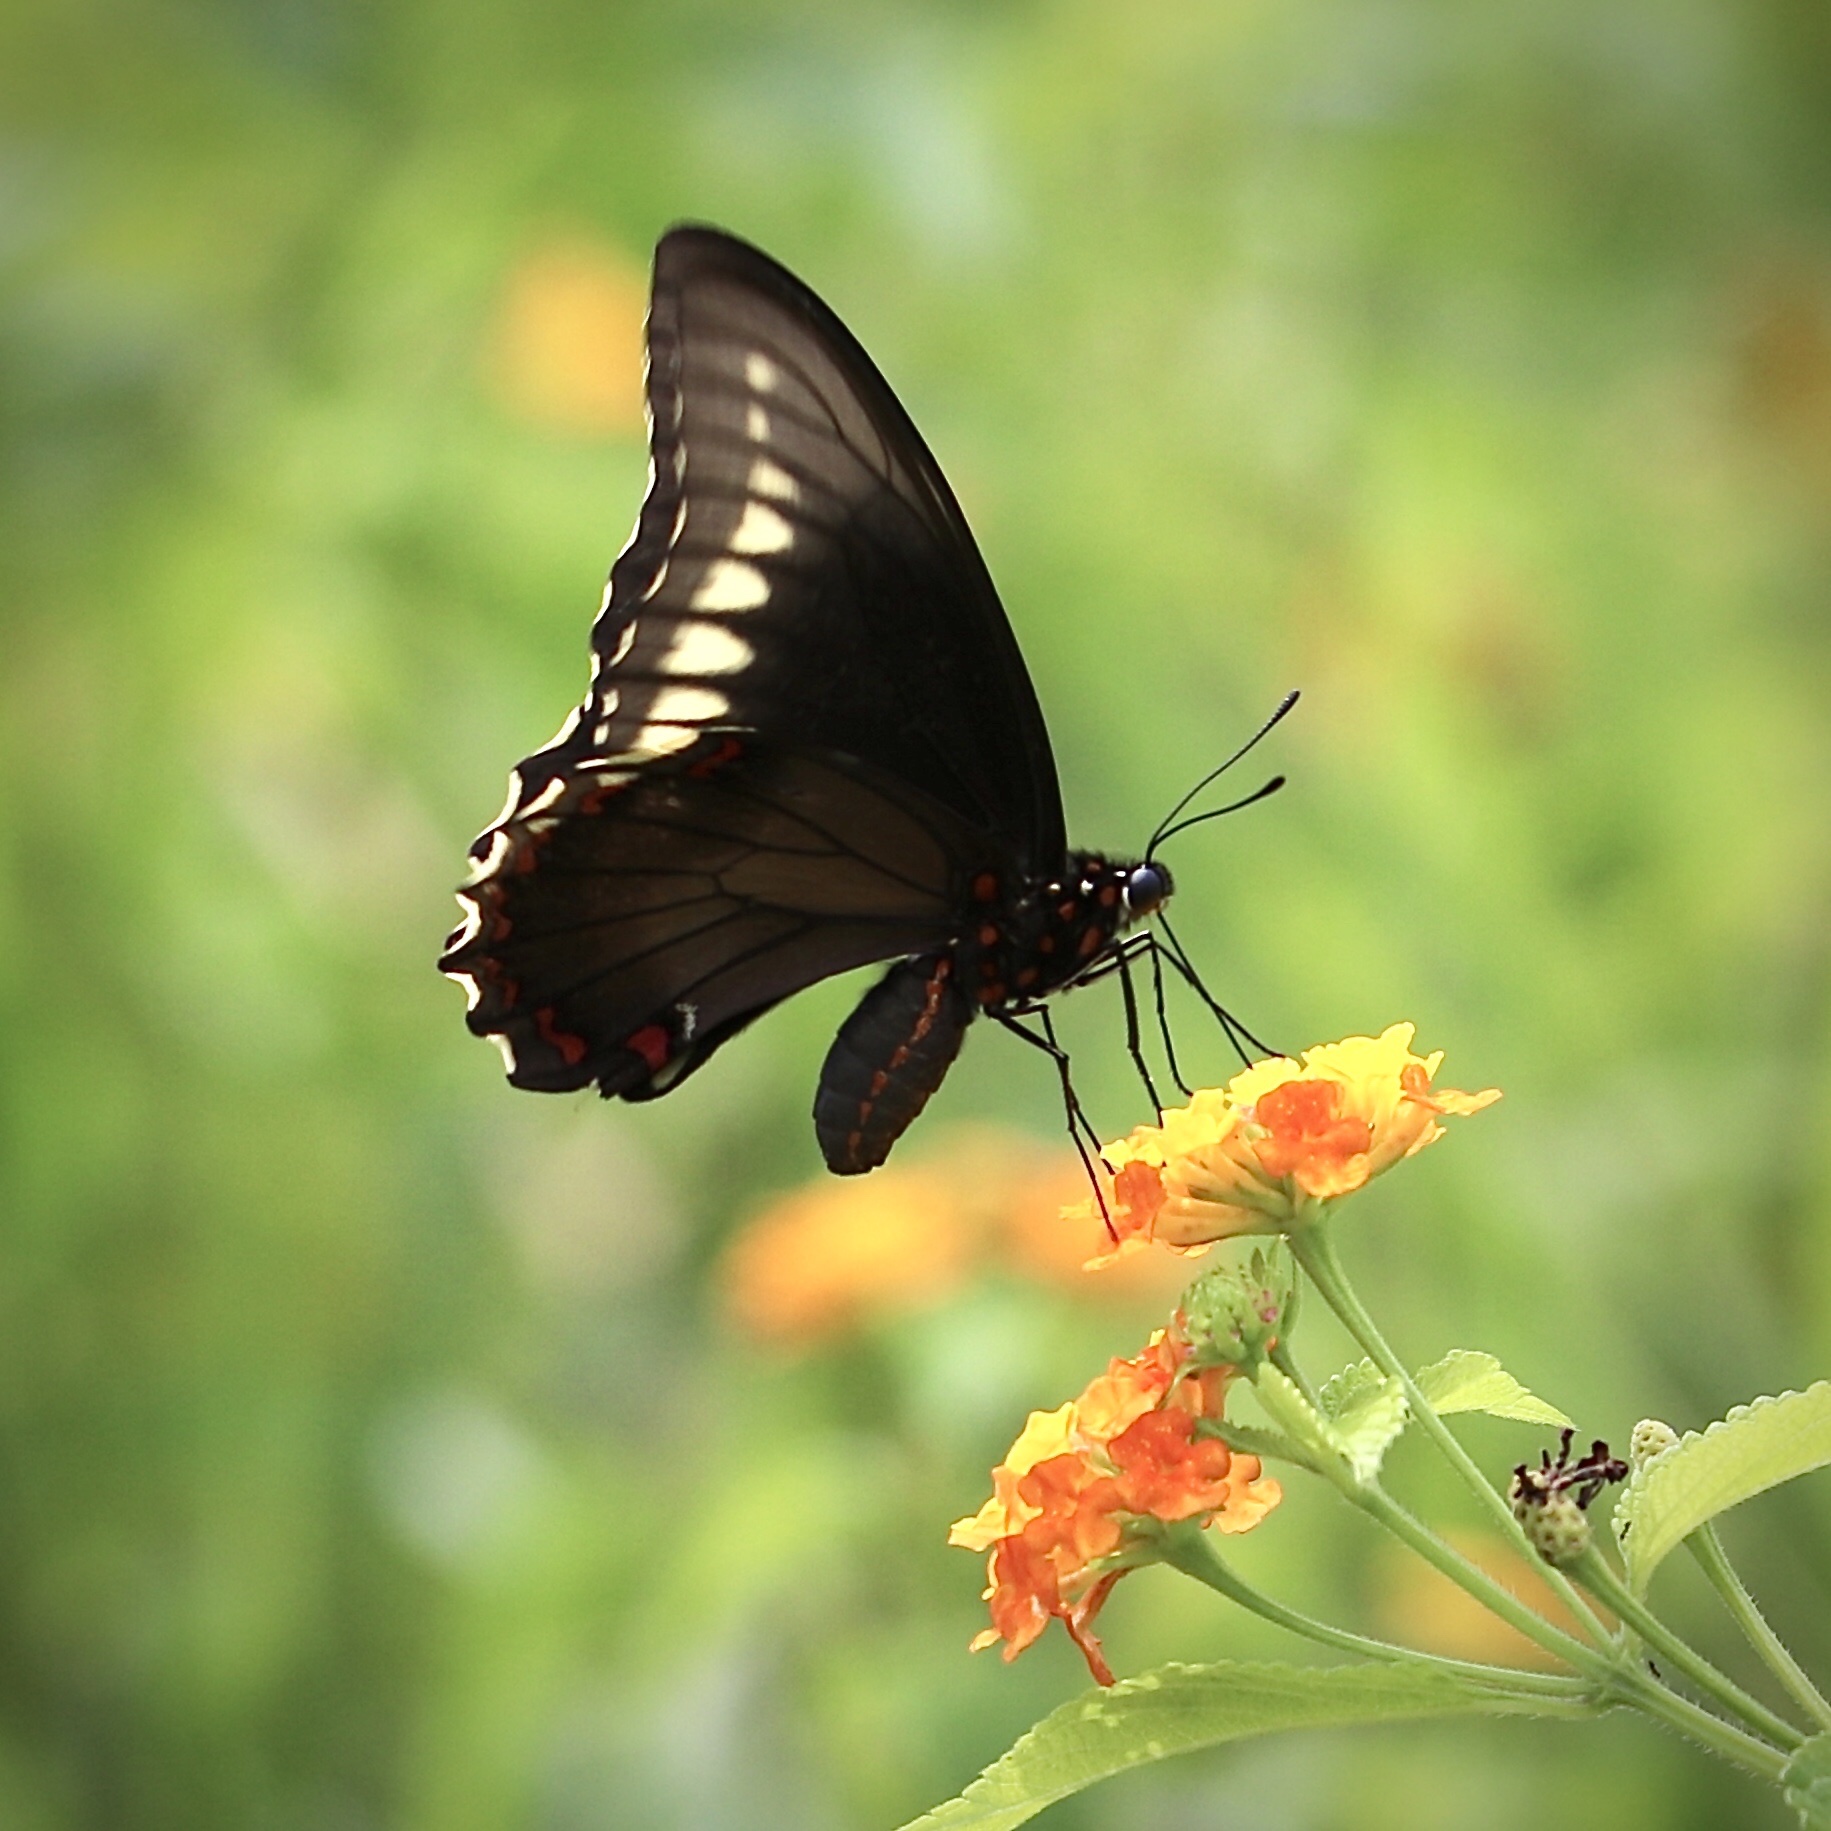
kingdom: Animalia
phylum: Arthropoda
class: Insecta
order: Lepidoptera
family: Papilionidae
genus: Battus
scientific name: Battus polydamas
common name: Polydamas swallowtail
